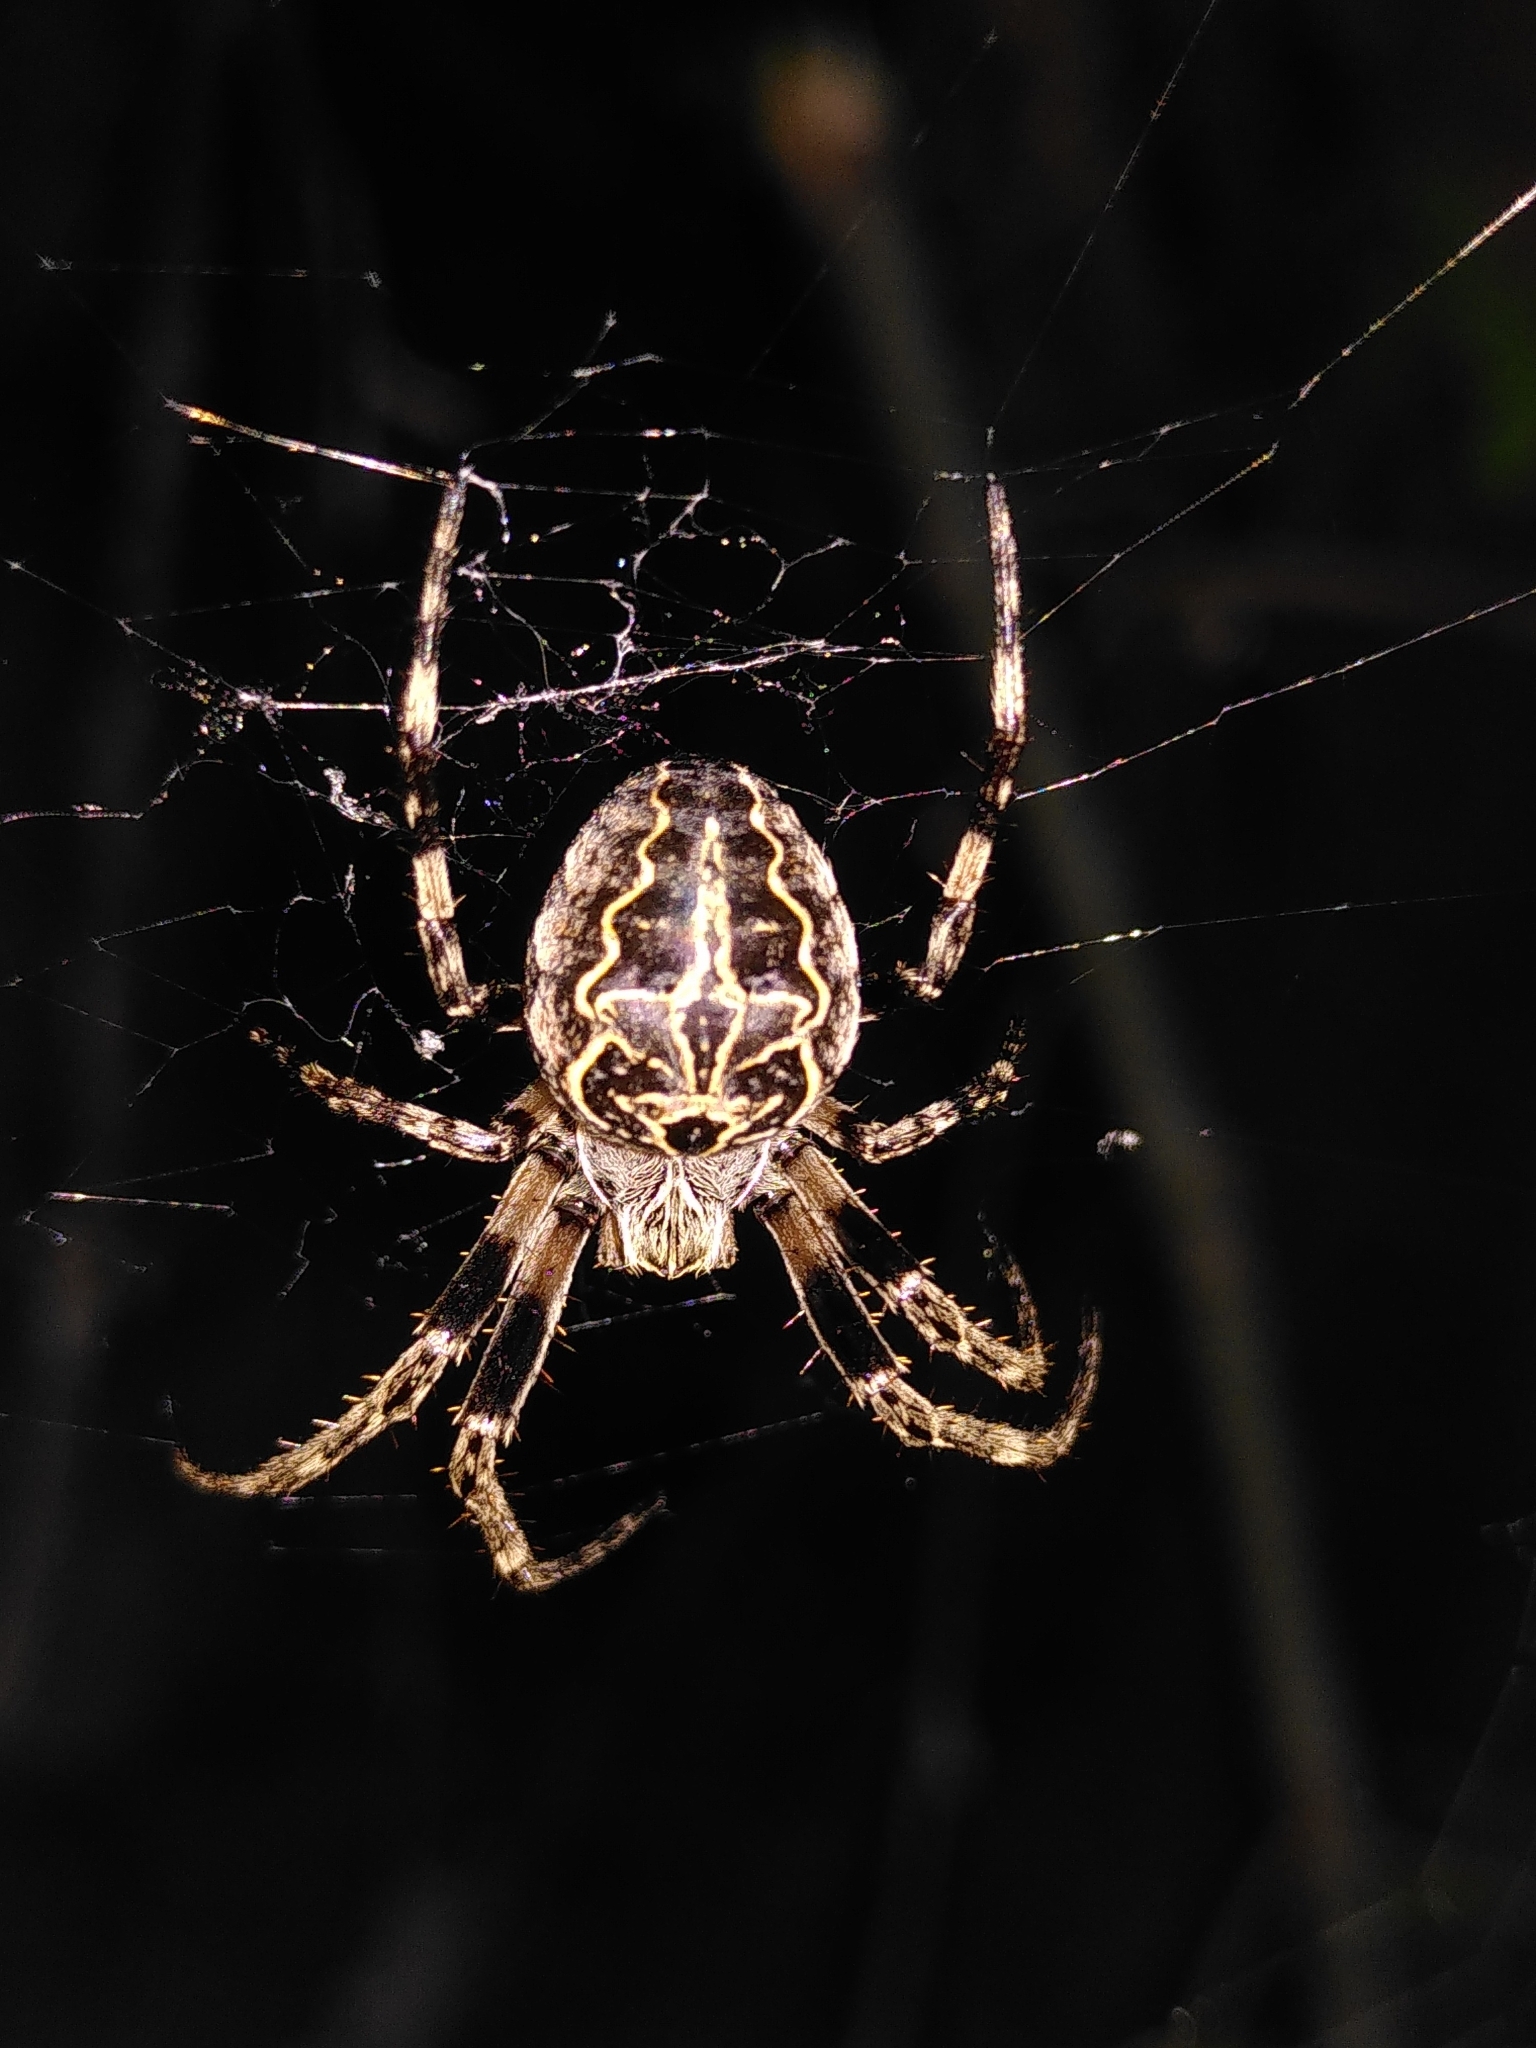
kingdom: Animalia
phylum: Arthropoda
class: Arachnida
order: Araneae
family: Araneidae
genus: Larinioides
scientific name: Larinioides sclopetarius
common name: Bridge orbweaver
